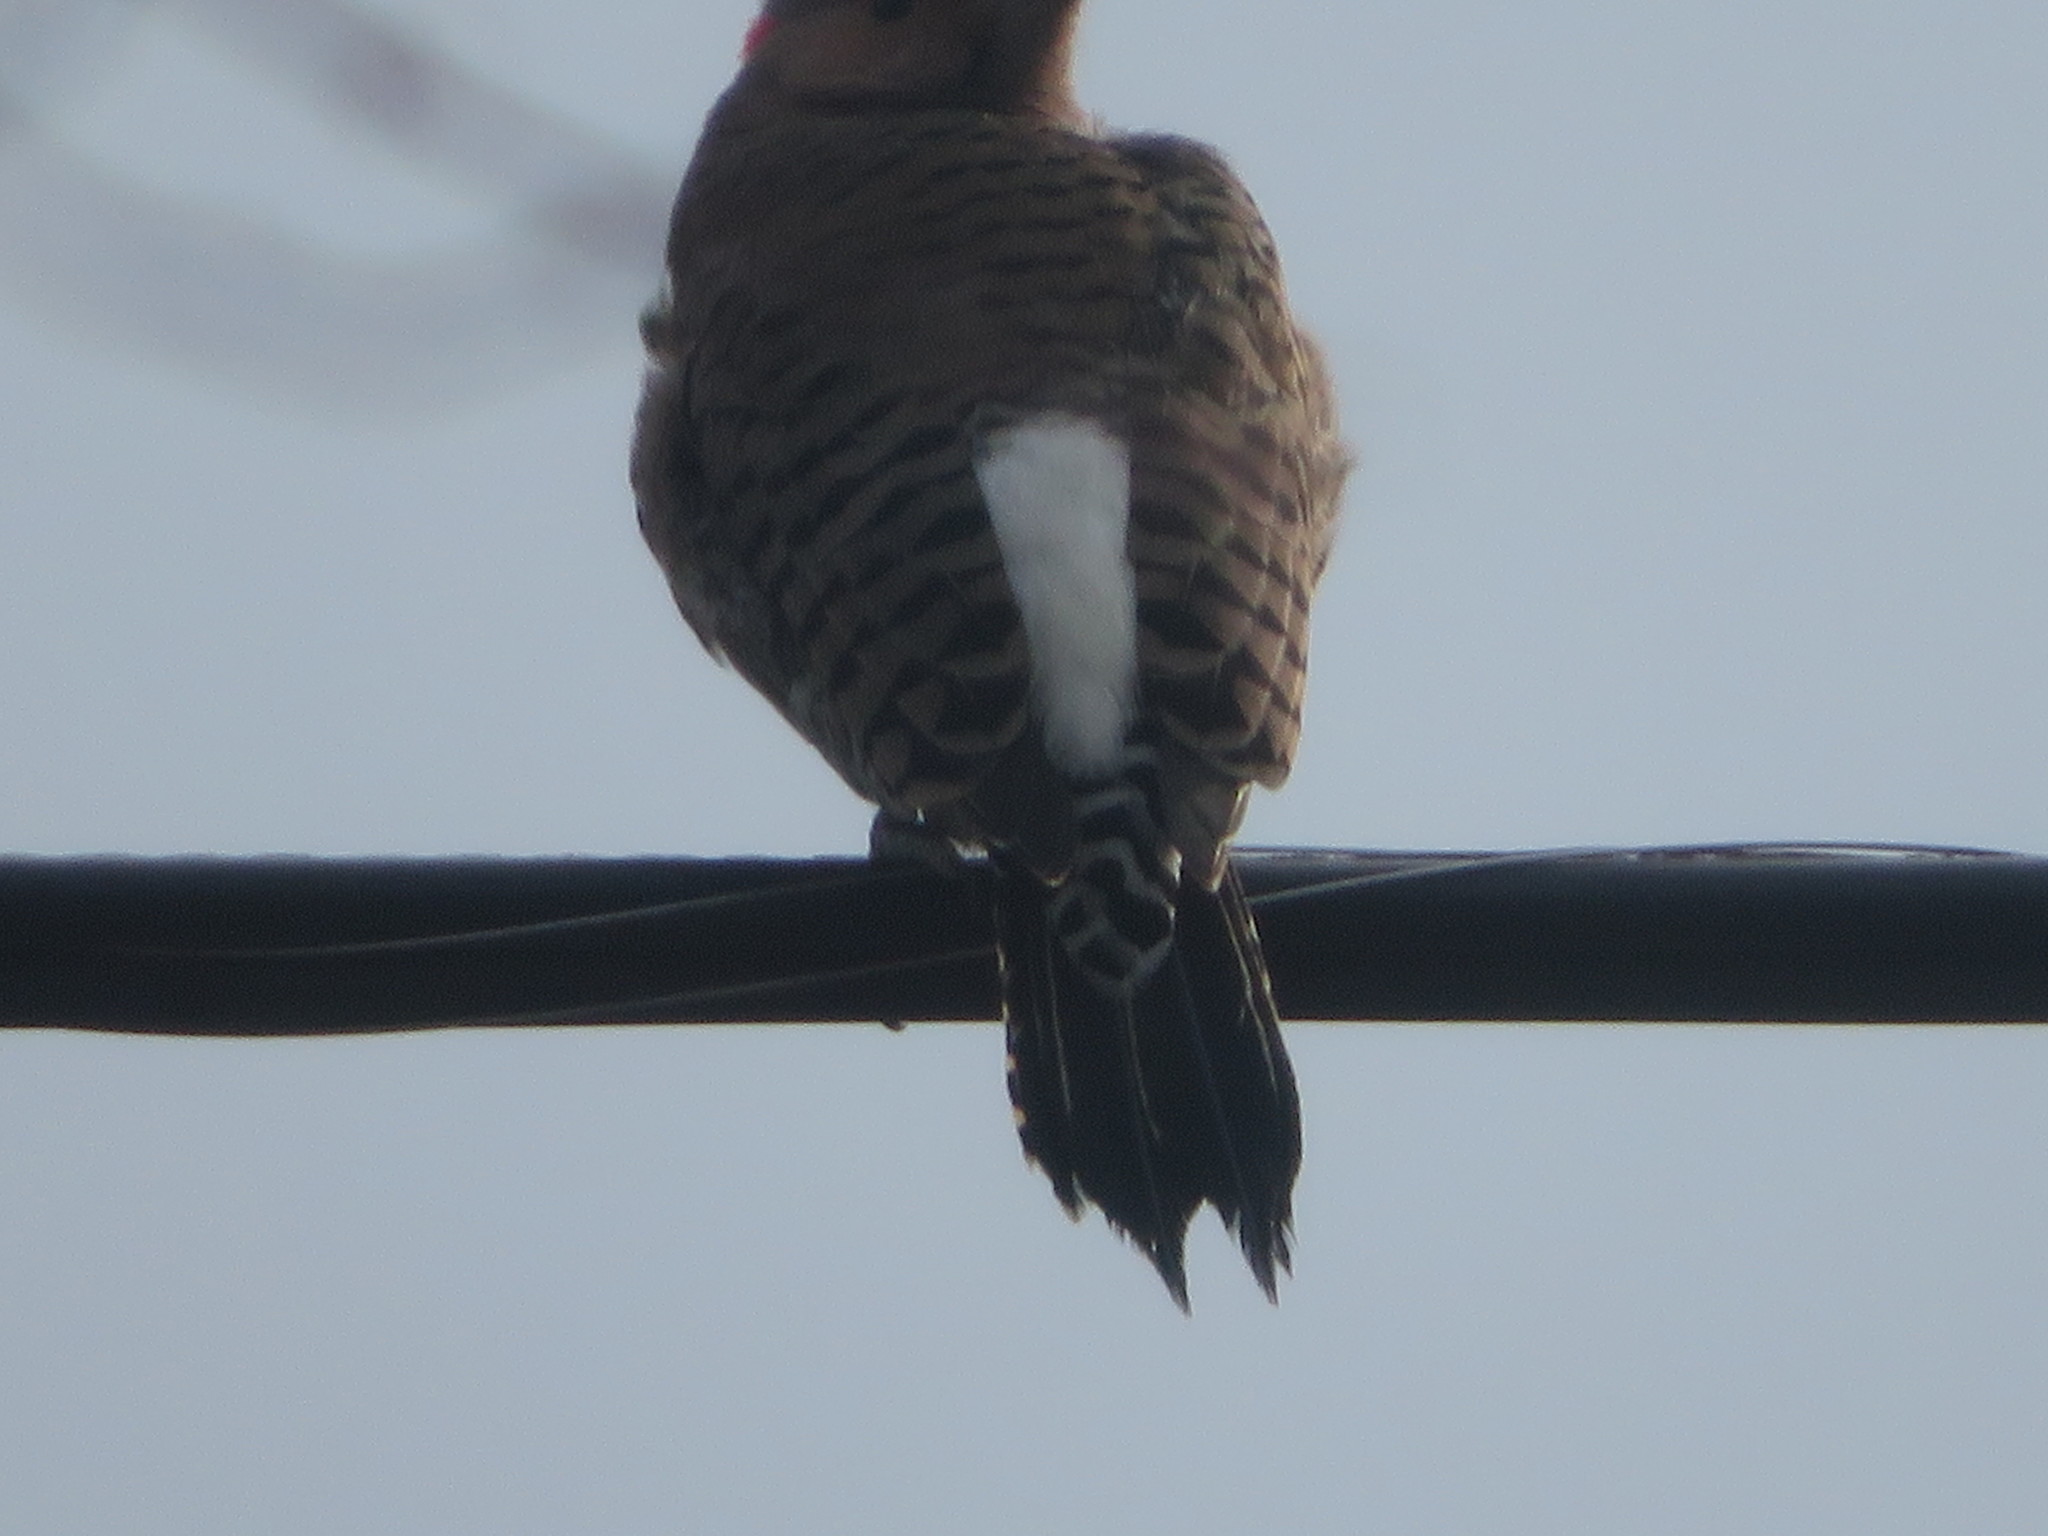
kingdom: Animalia
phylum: Chordata
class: Aves
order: Piciformes
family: Picidae
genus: Colaptes
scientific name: Colaptes auratus
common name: Northern flicker
